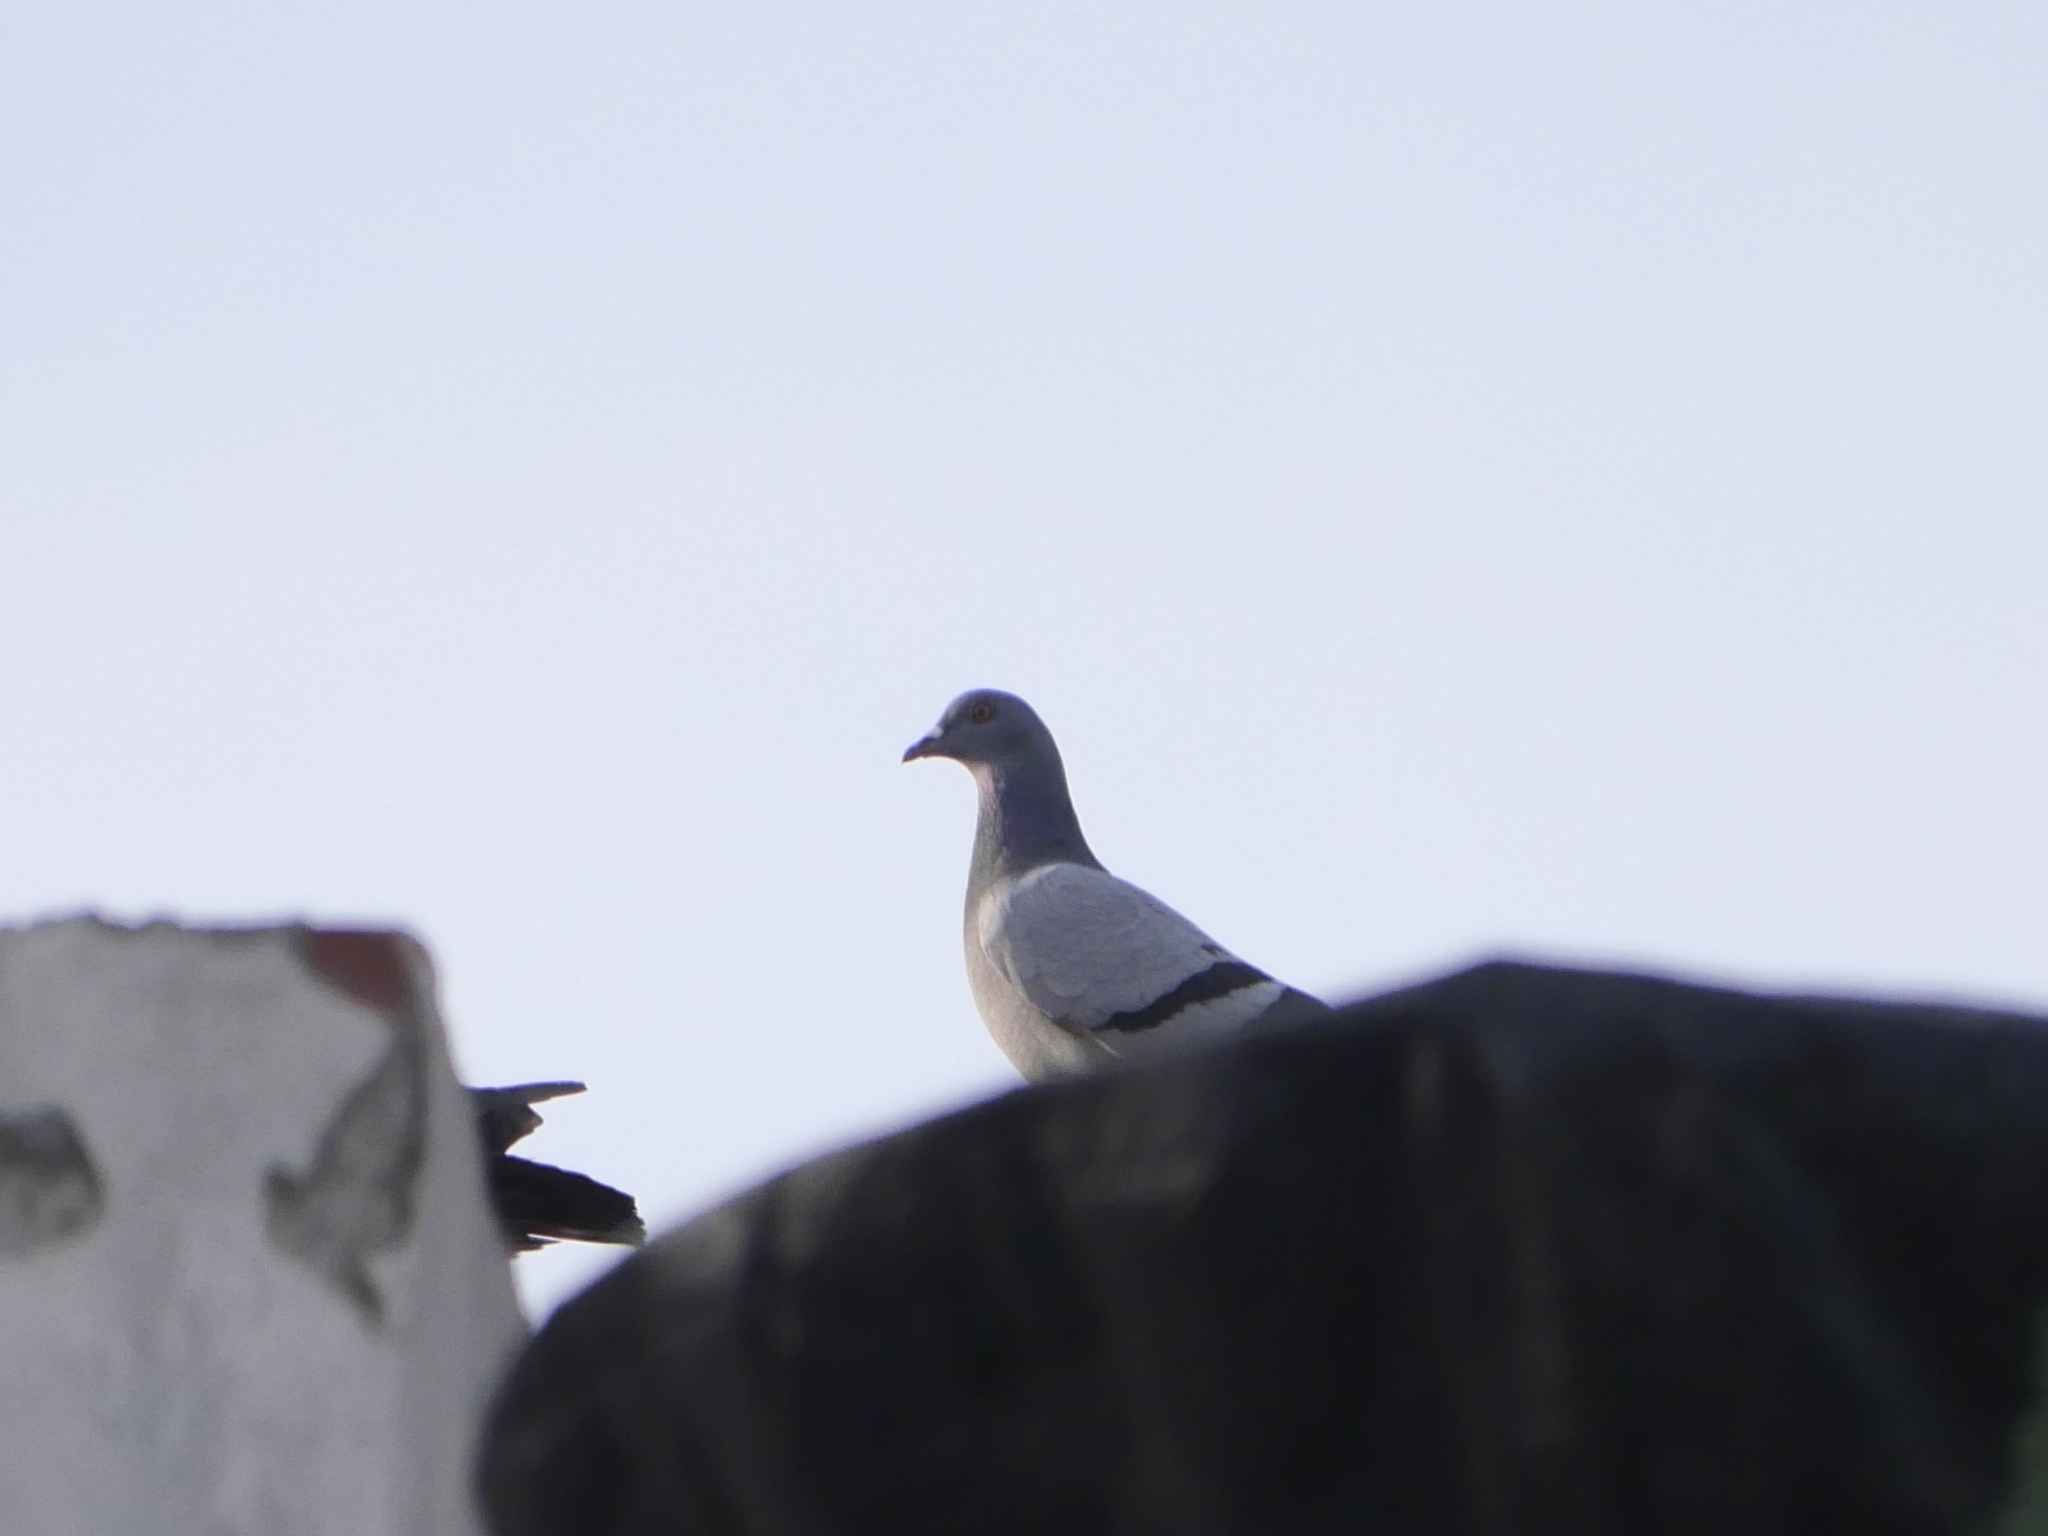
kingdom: Animalia
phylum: Chordata
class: Aves
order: Columbiformes
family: Columbidae
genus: Columba
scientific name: Columba livia
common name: Rock pigeon
